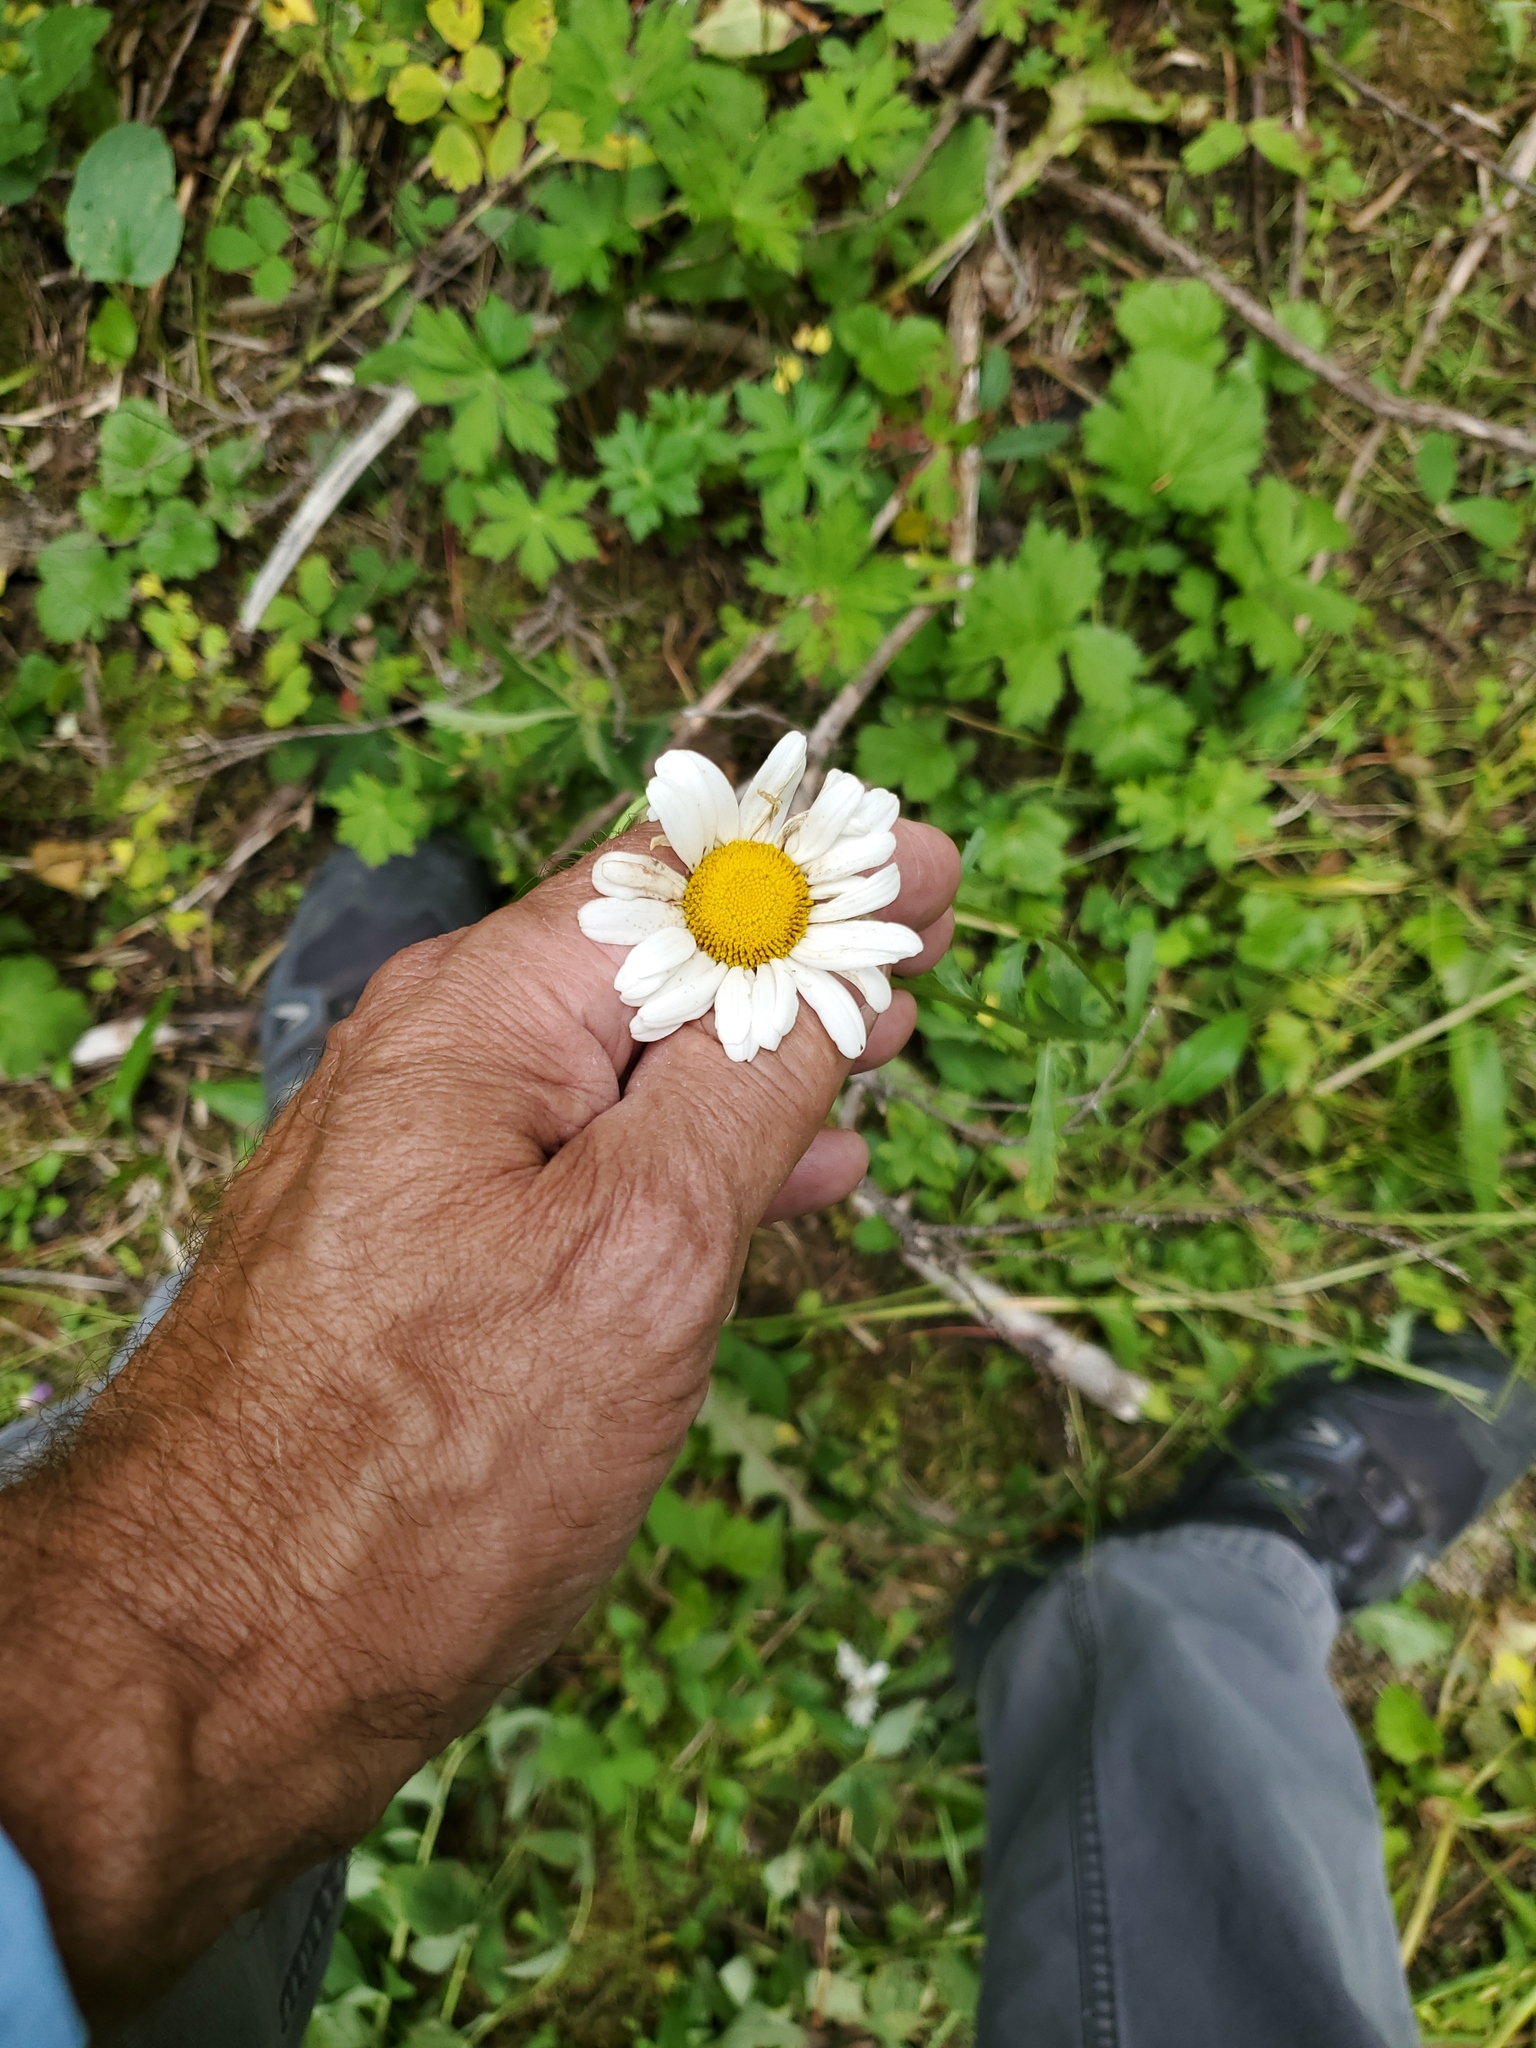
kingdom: Plantae
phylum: Tracheophyta
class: Magnoliopsida
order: Asterales
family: Asteraceae
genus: Leucanthemum
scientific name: Leucanthemum vulgare
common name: Oxeye daisy
